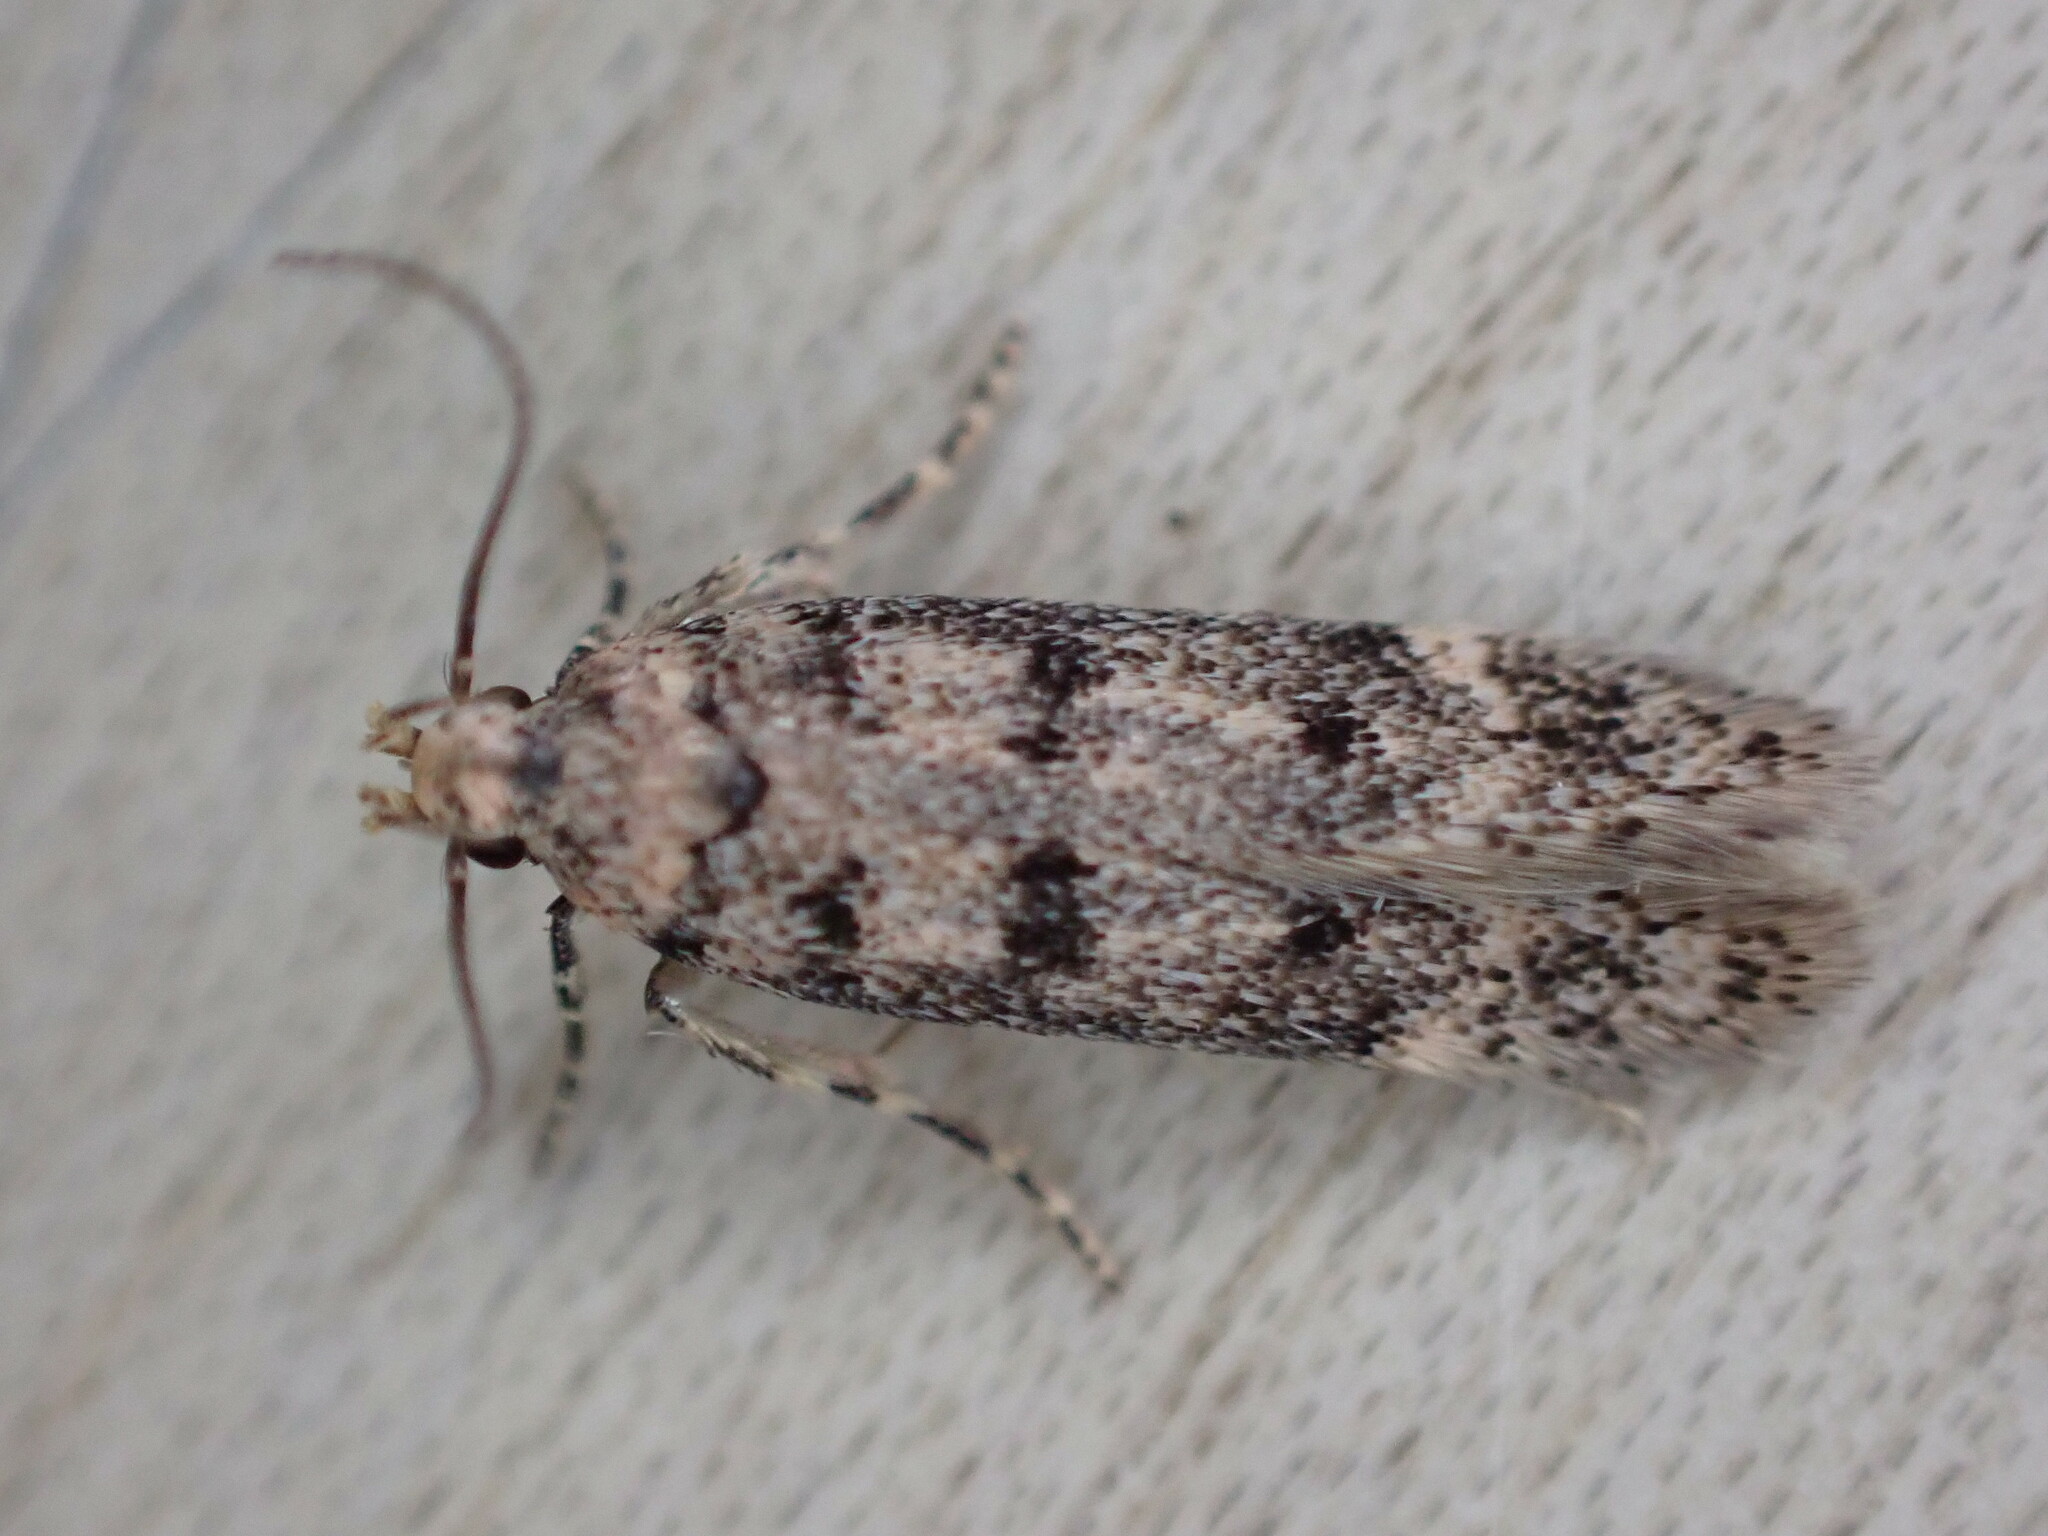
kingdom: Animalia
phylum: Arthropoda
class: Insecta
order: Lepidoptera
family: Gelechiidae
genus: Bryotropha
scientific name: Bryotropha domestica
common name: House groundling
